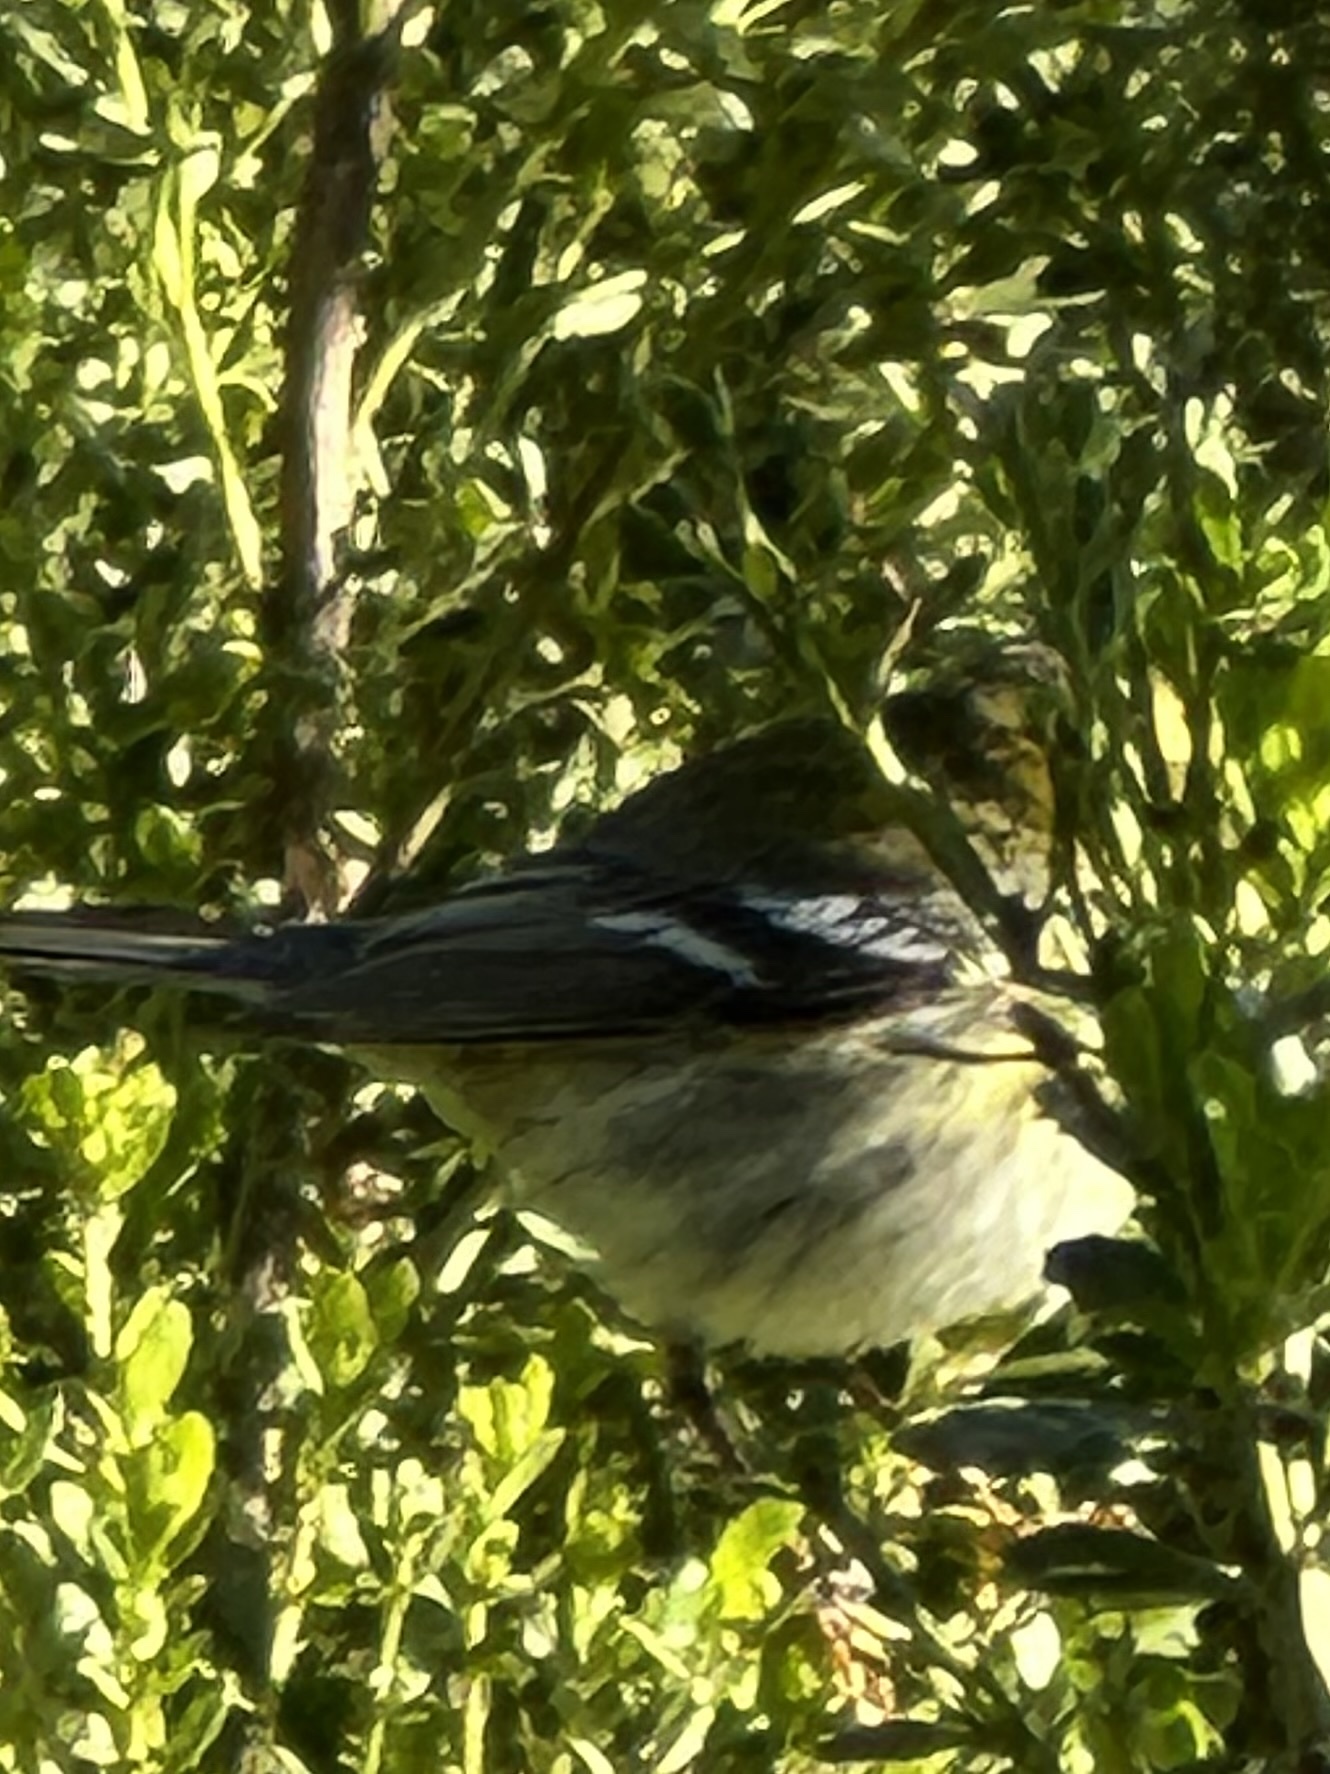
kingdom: Animalia
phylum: Chordata
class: Aves
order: Passeriformes
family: Parulidae
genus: Setophaga
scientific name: Setophaga townsendi
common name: Townsend's warbler
